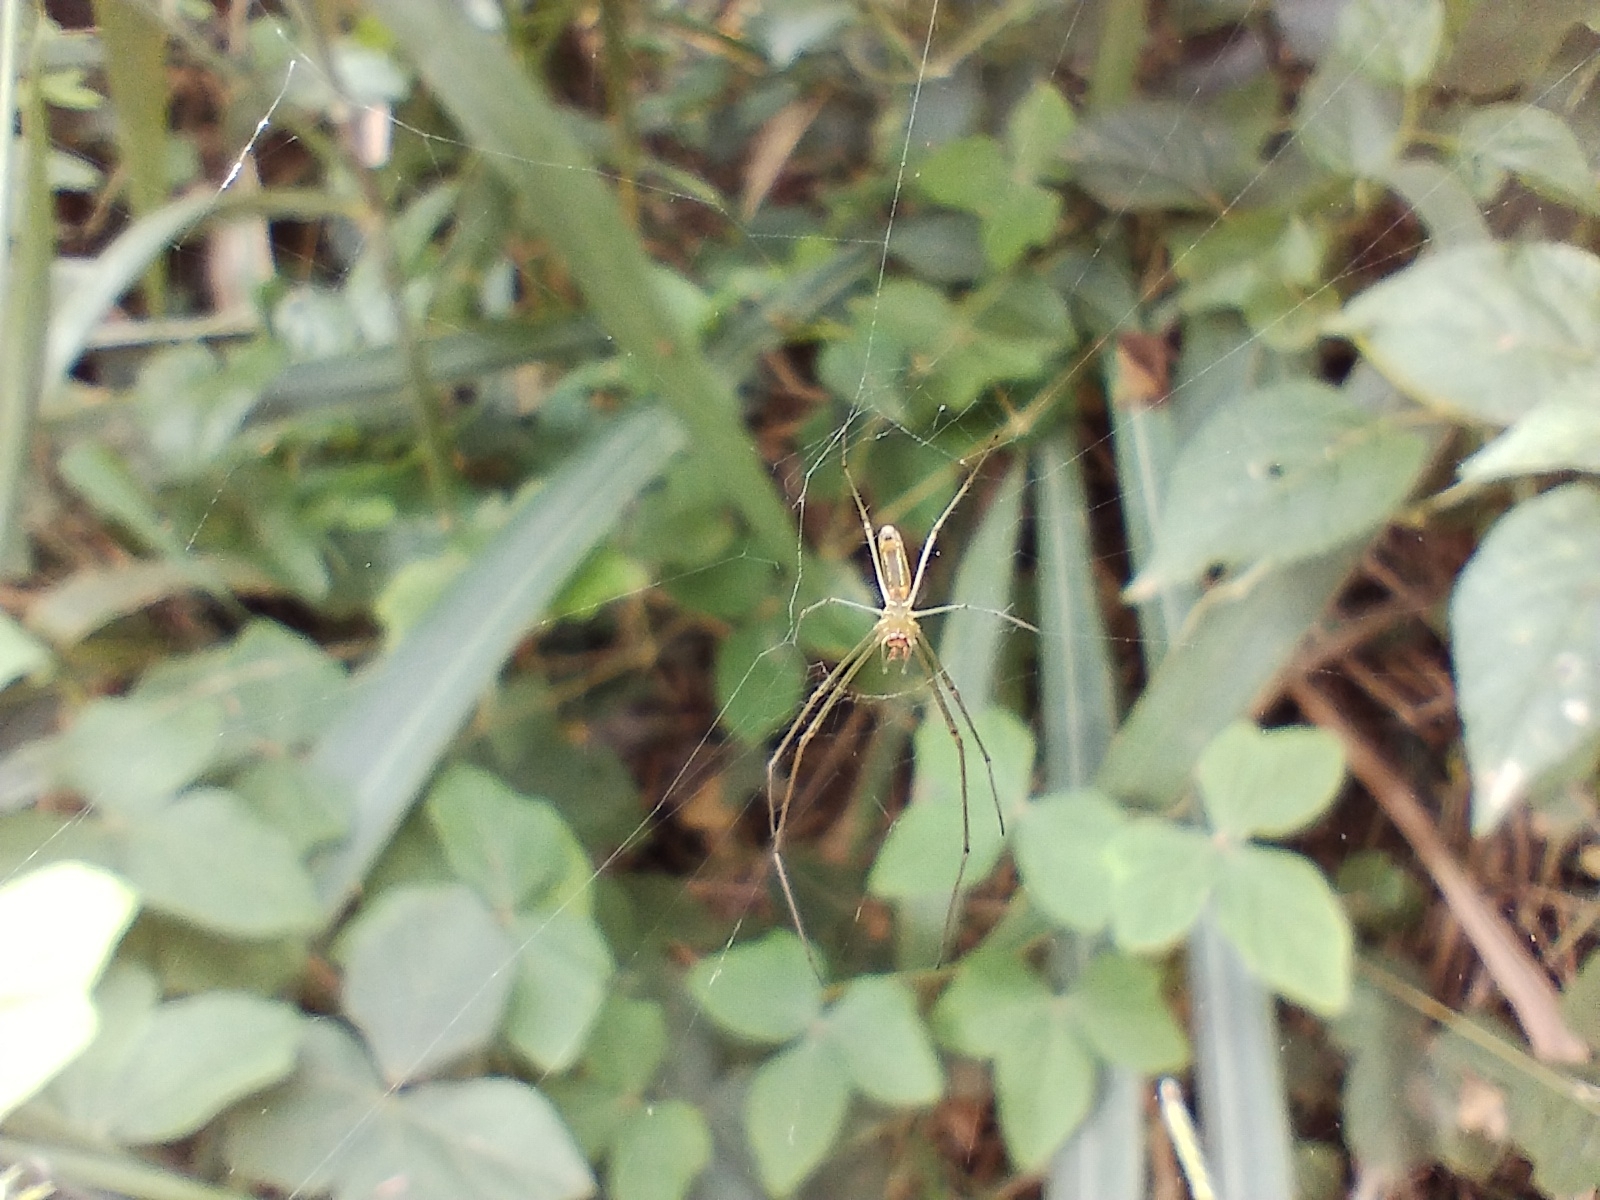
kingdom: Animalia
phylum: Arthropoda
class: Arachnida
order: Araneae
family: Tetragnathidae
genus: Leucauge
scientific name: Leucauge decorata
